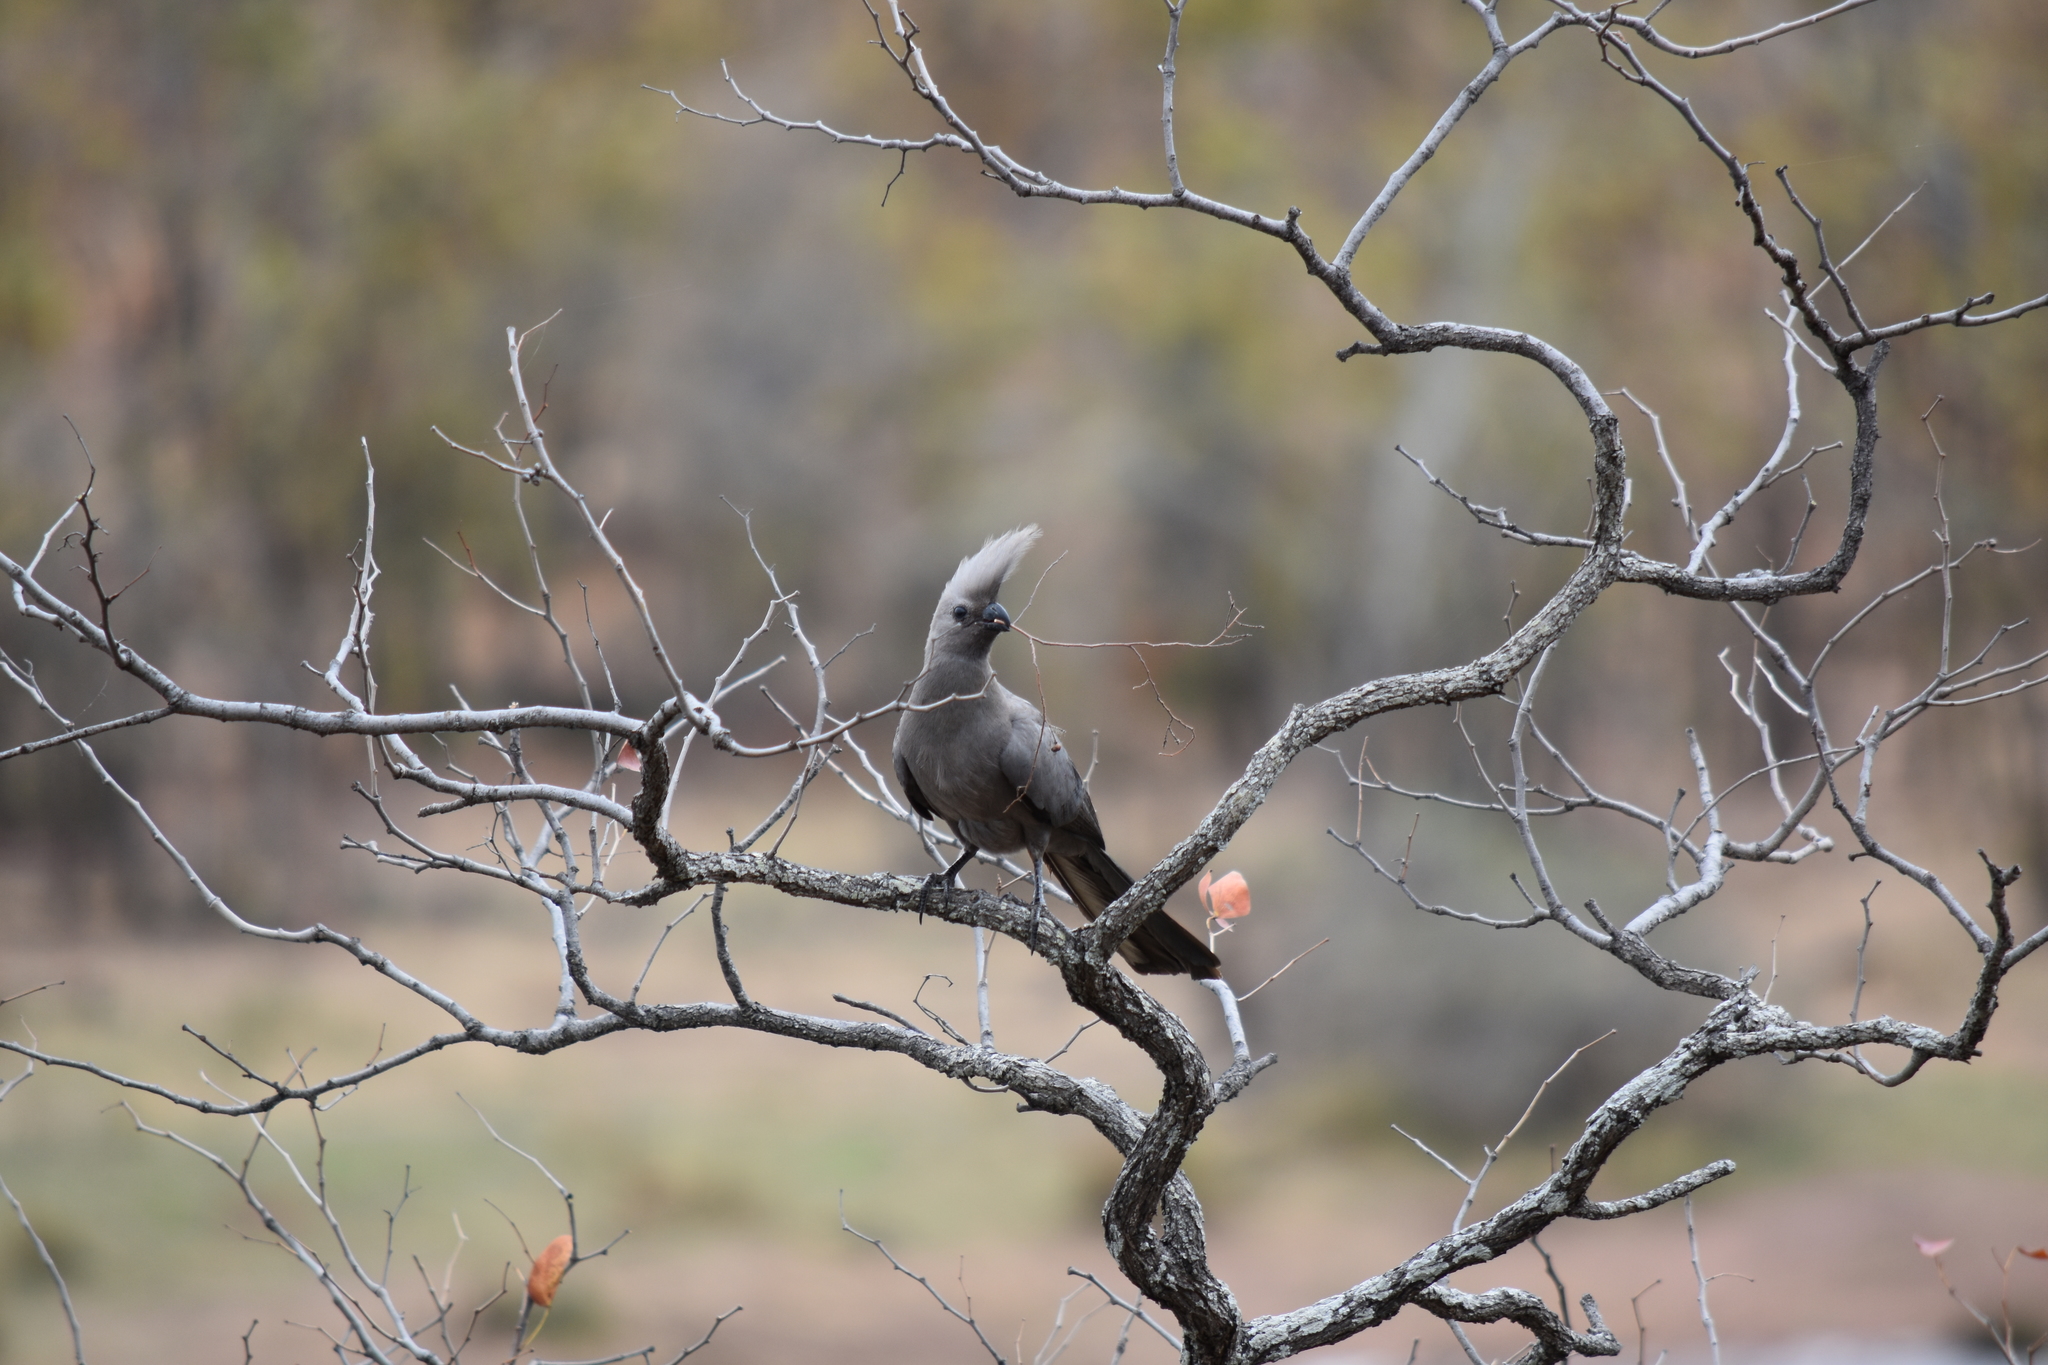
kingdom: Animalia
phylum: Chordata
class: Aves
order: Musophagiformes
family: Musophagidae
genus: Corythaixoides
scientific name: Corythaixoides concolor
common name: Grey go-away-bird
